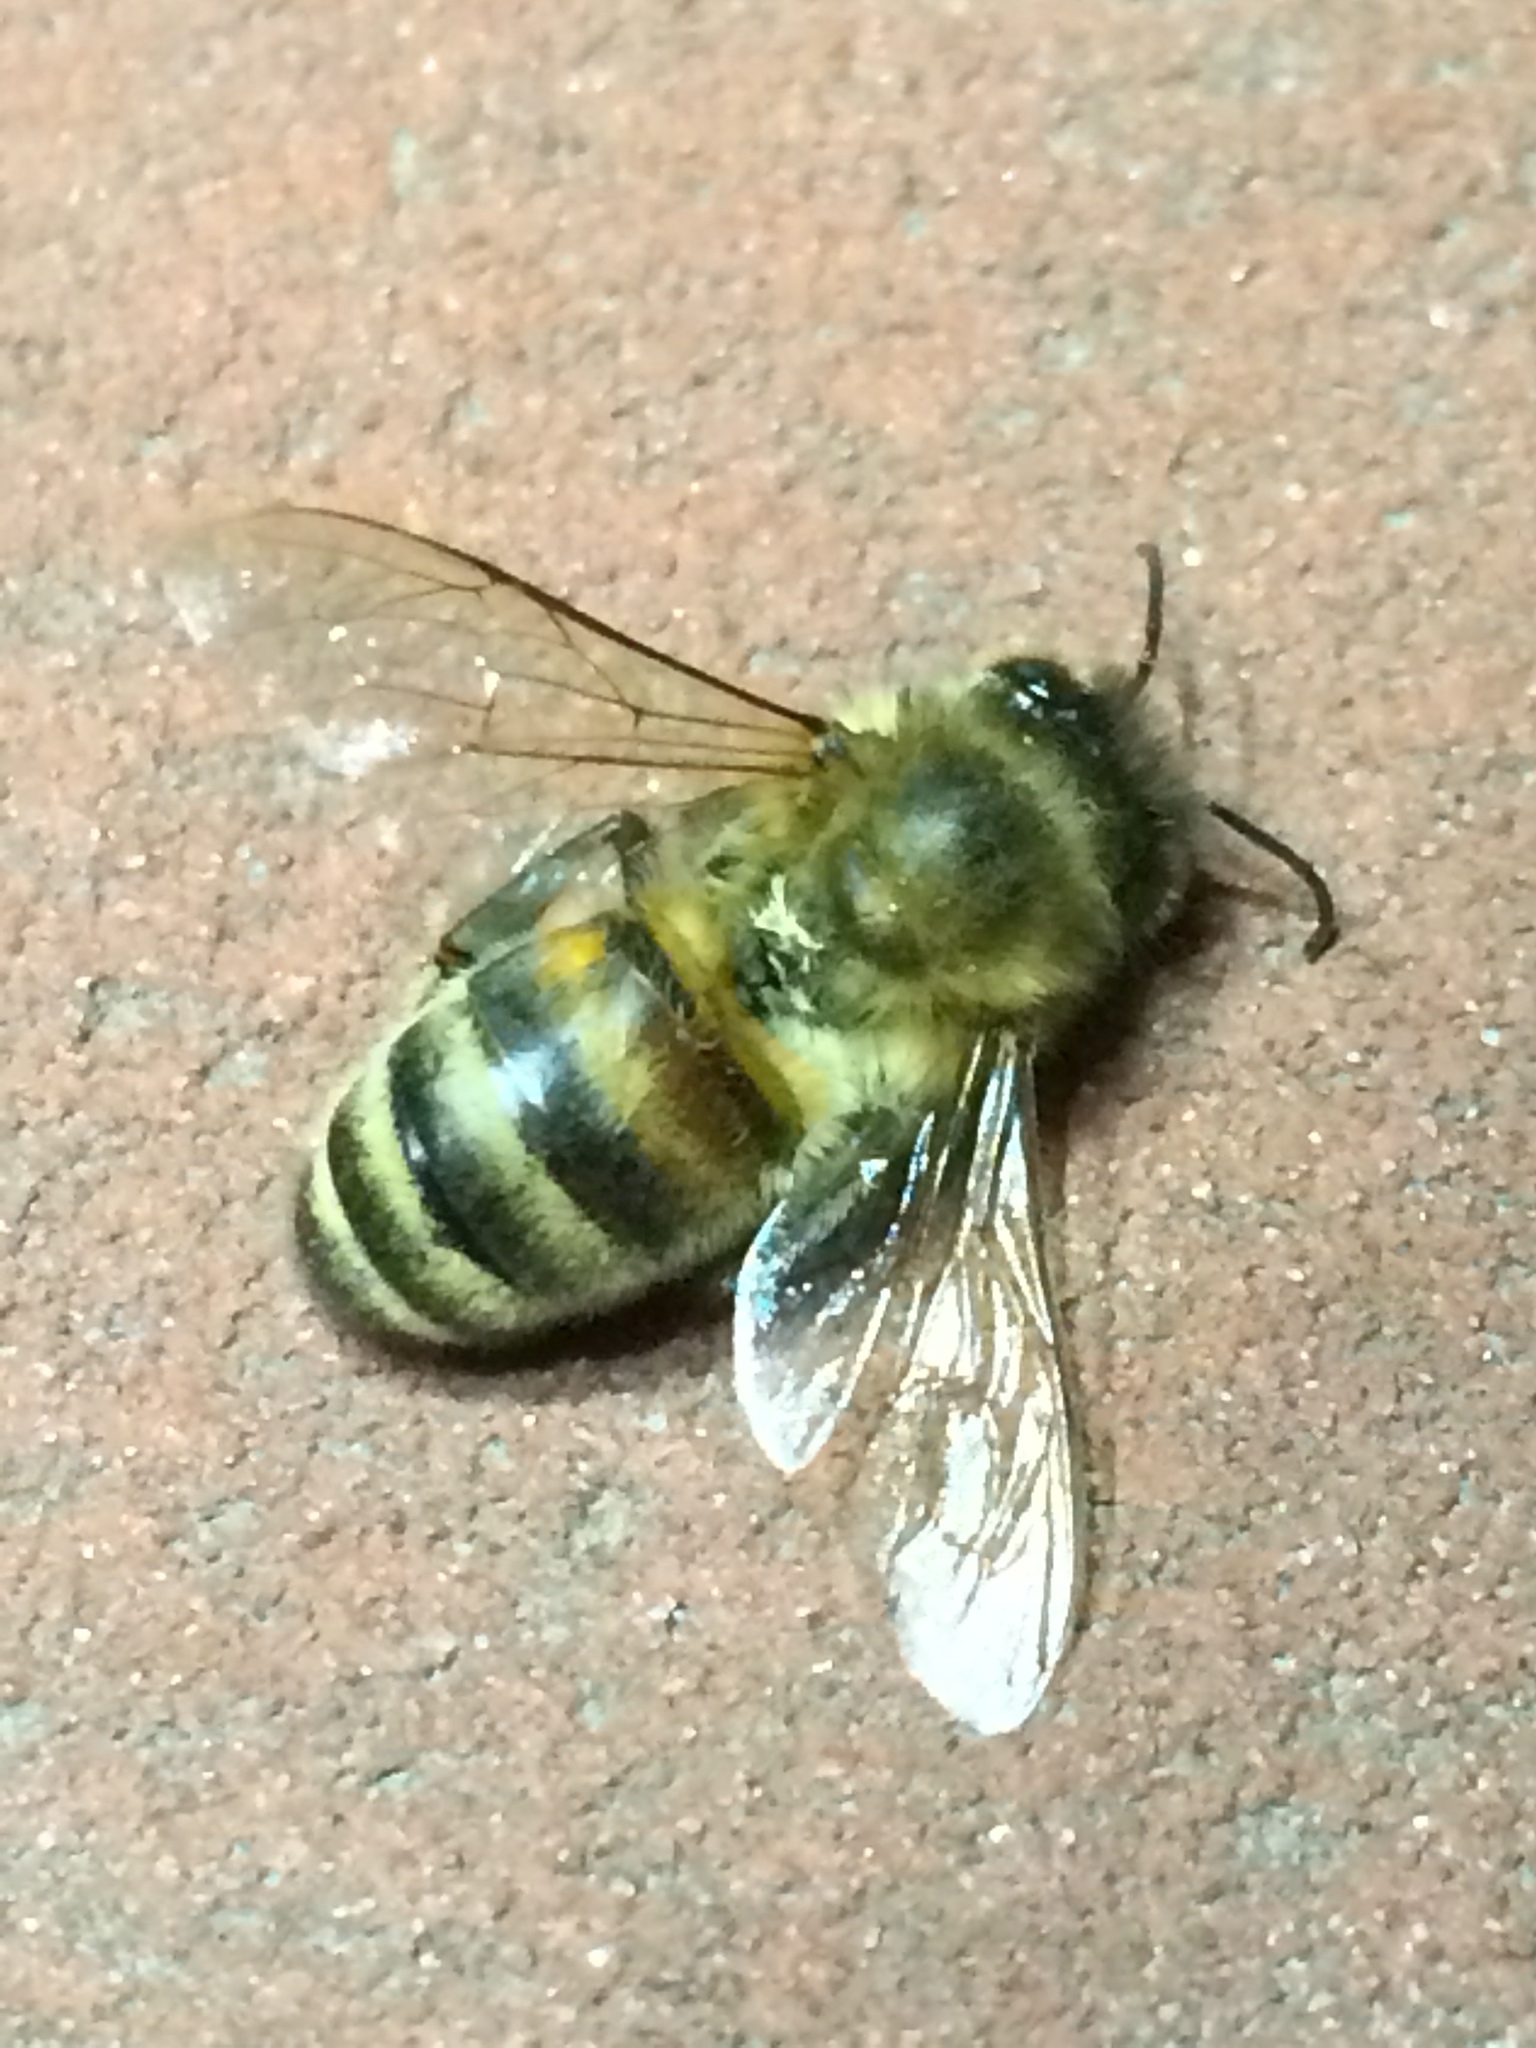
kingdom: Animalia
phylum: Arthropoda
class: Insecta
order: Hymenoptera
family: Apidae
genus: Apis
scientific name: Apis mellifera
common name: Honey bee
